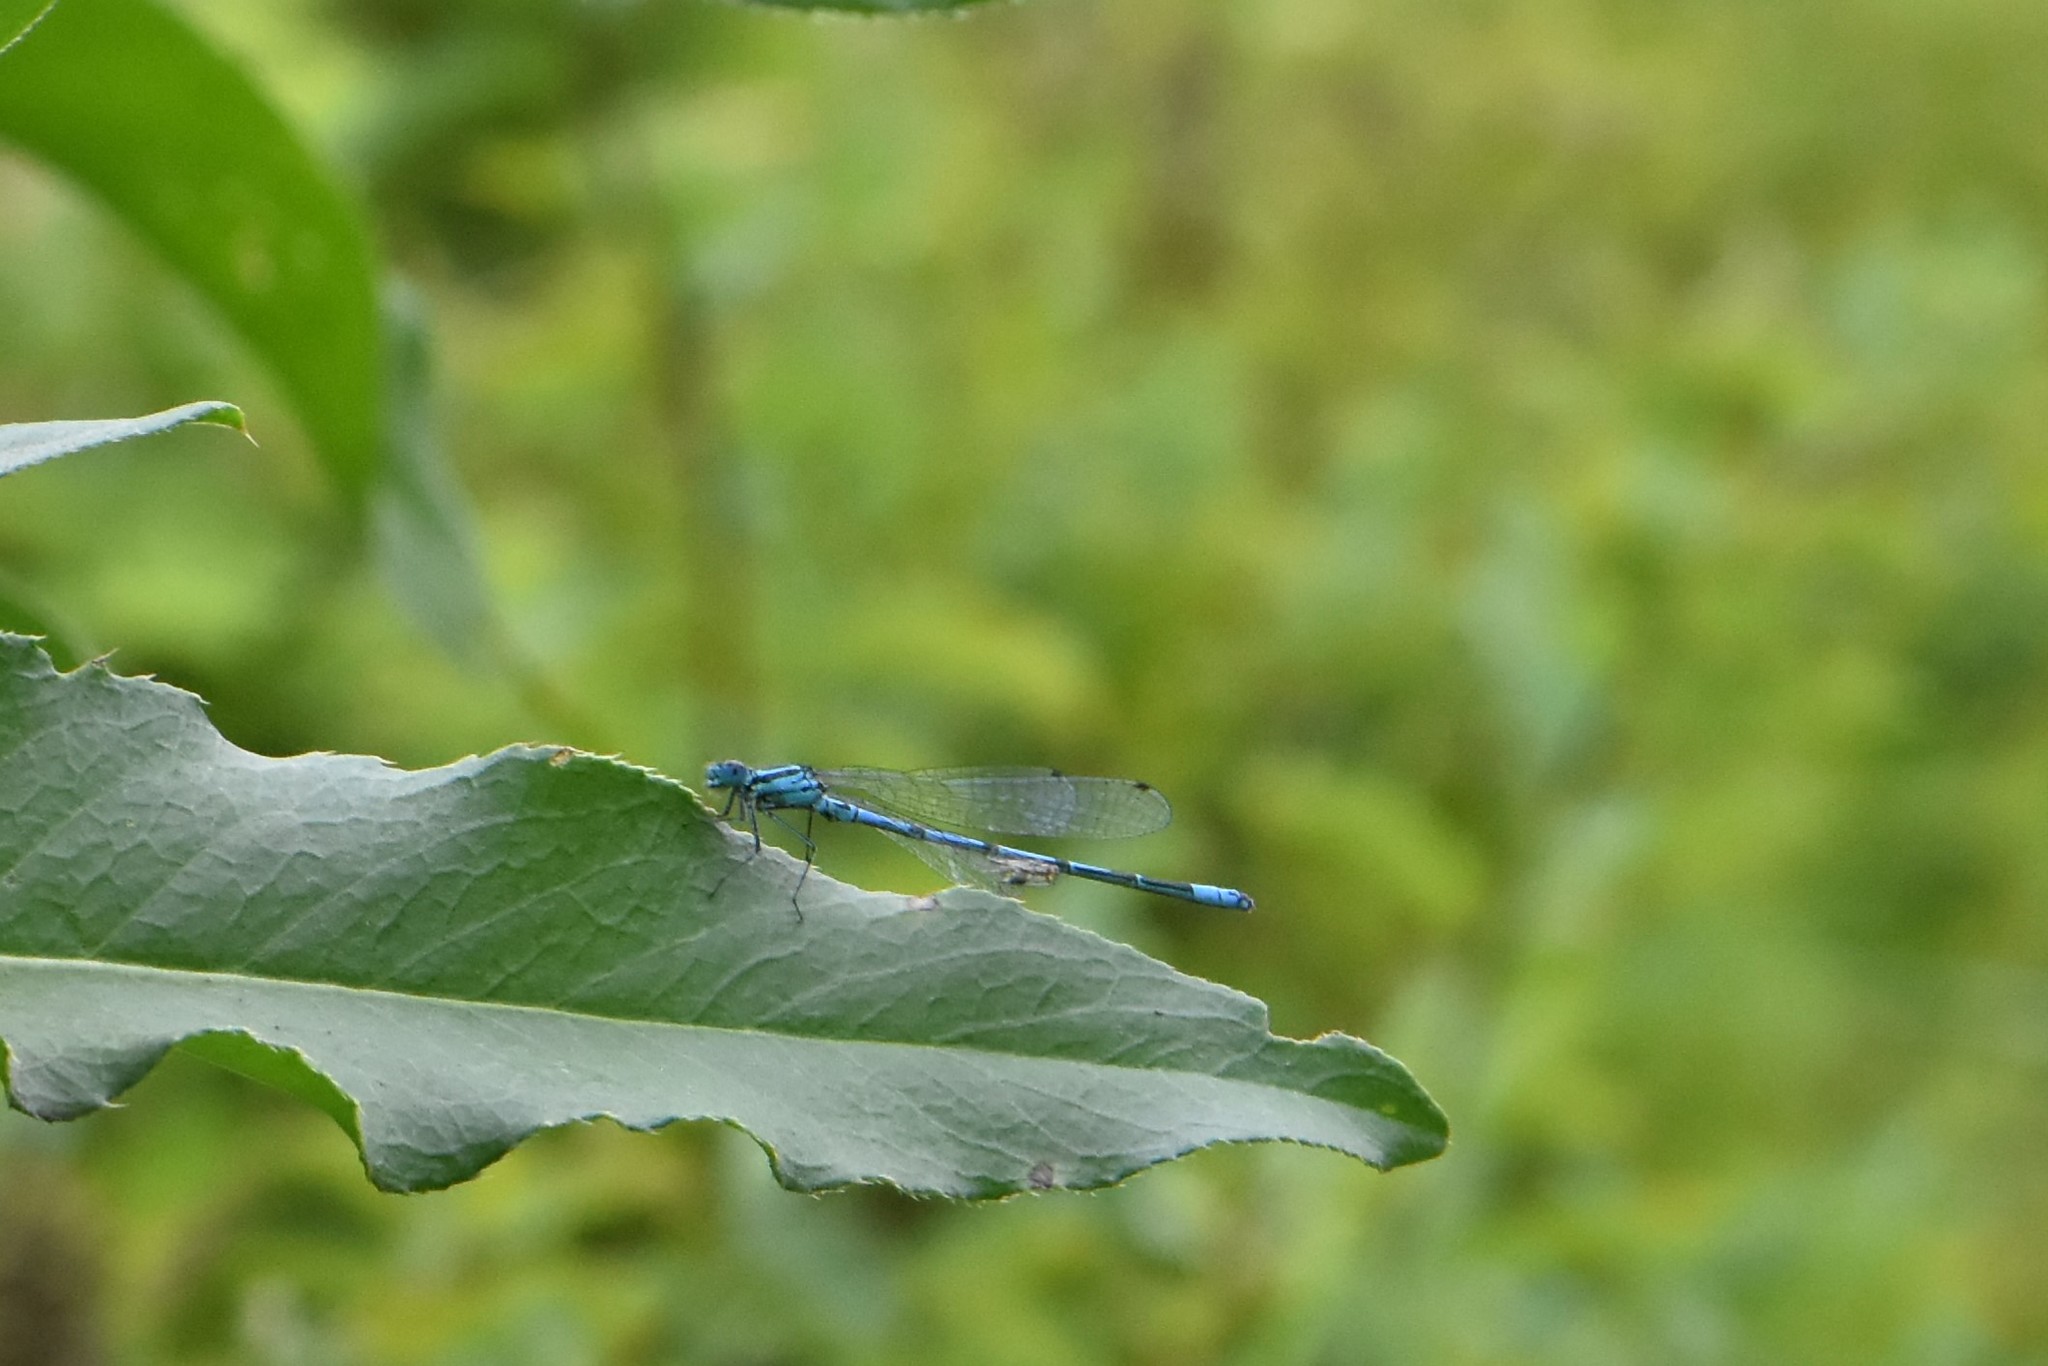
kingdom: Animalia
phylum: Arthropoda
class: Insecta
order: Odonata
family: Coenagrionidae
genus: Coenagrion
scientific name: Coenagrion puella
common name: Azure damselfly
